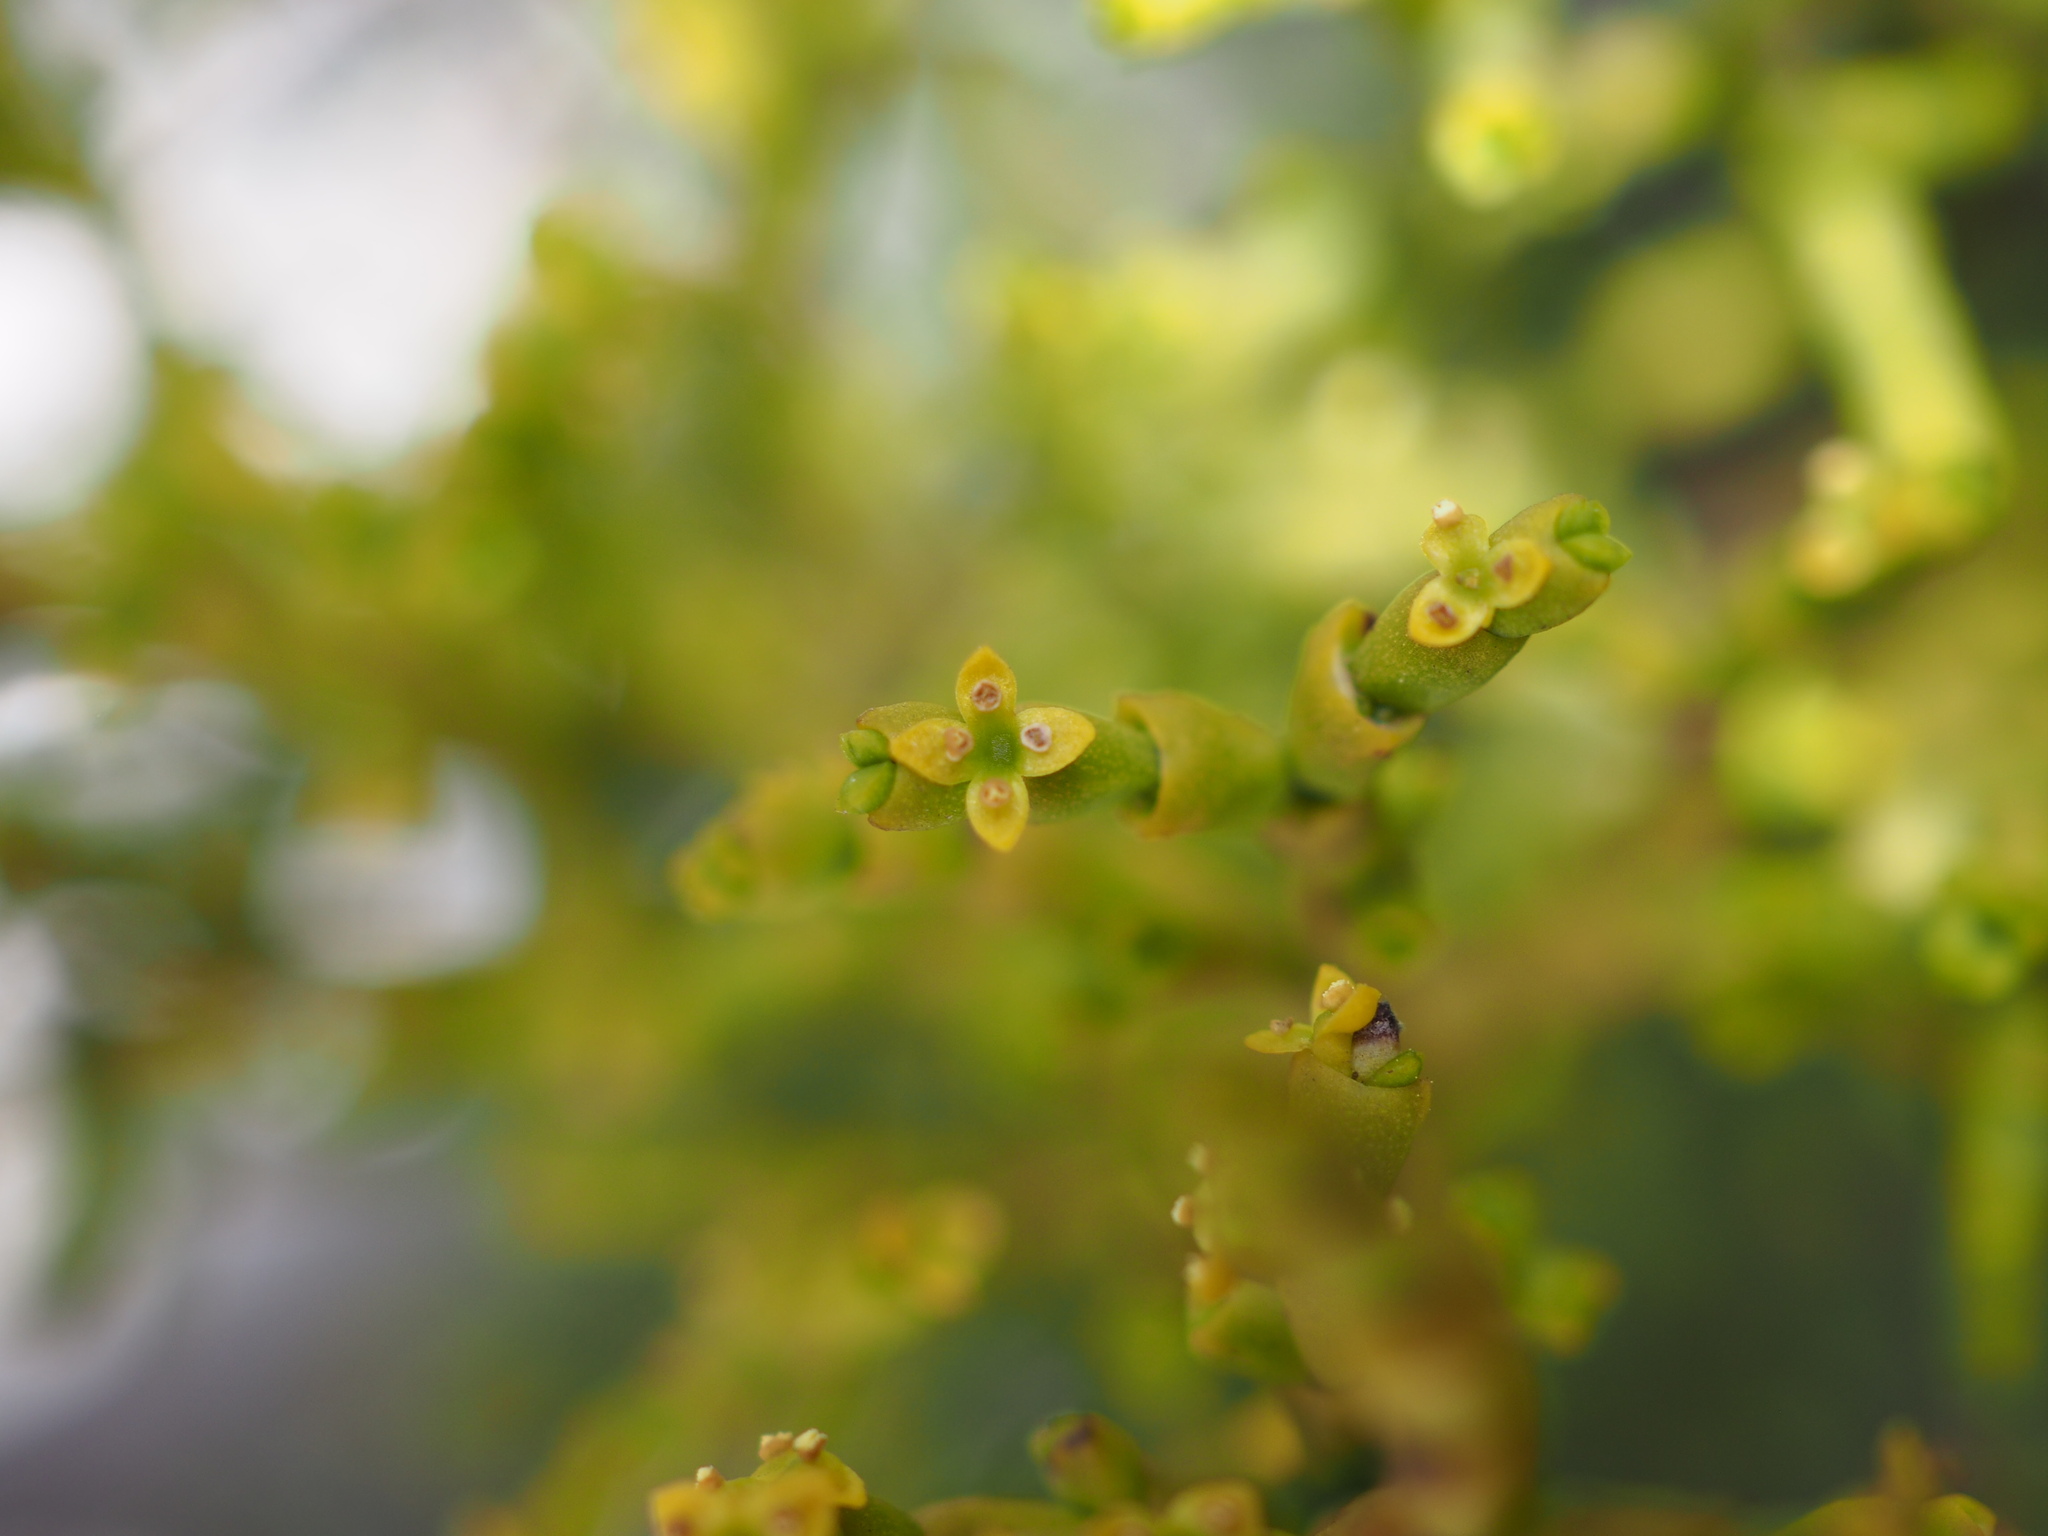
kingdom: Plantae
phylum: Tracheophyta
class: Magnoliopsida
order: Santalales
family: Viscaceae
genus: Arceuthobium
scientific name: Arceuthobium gambyi
